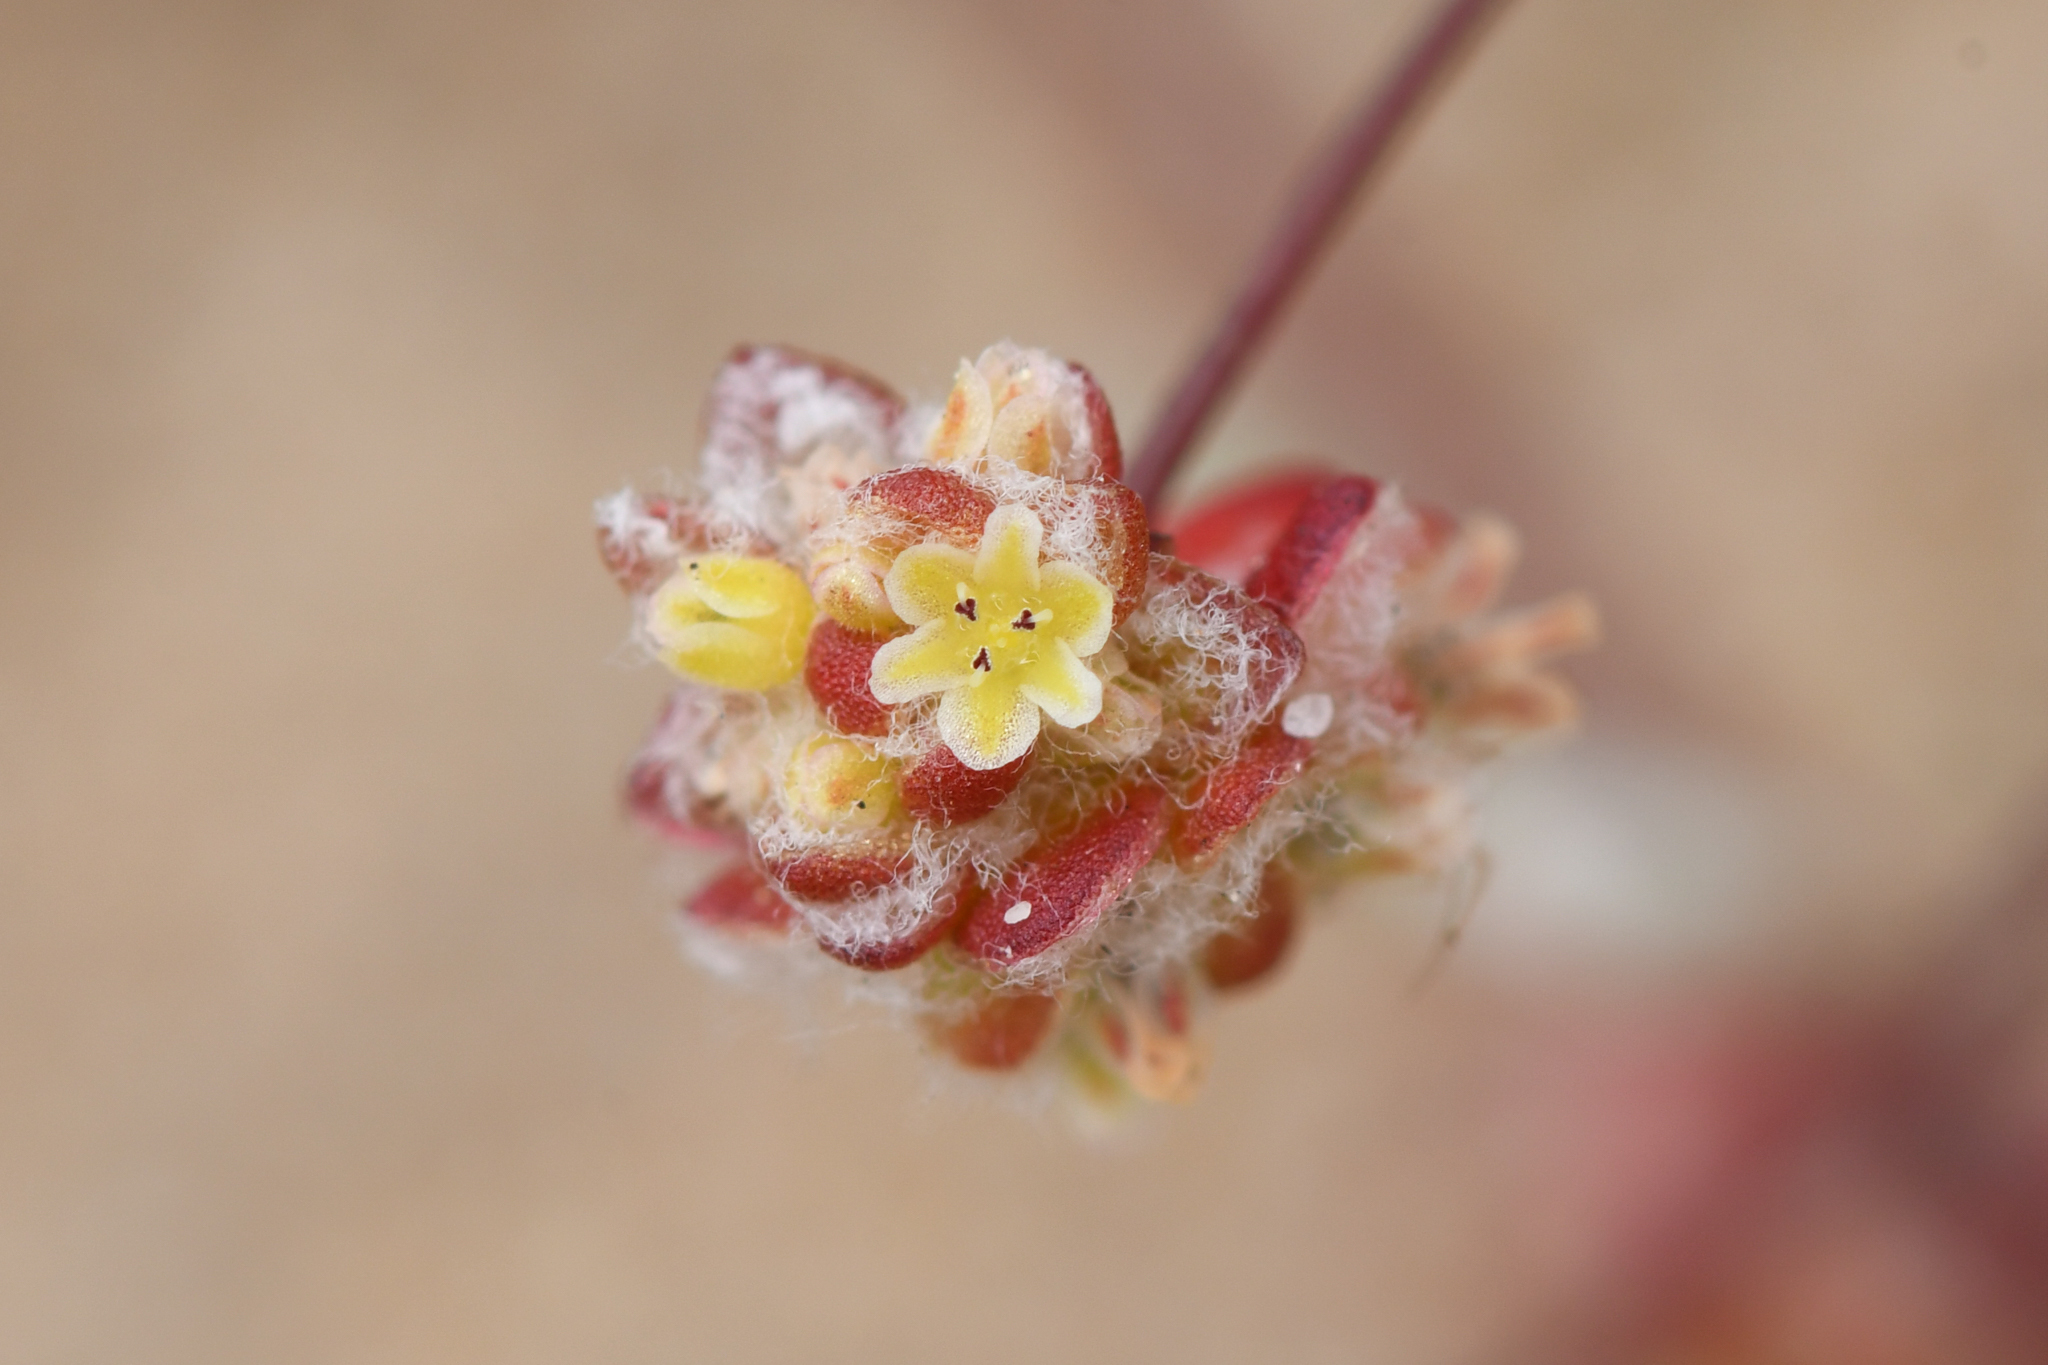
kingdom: Plantae
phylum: Tracheophyta
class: Magnoliopsida
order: Caryophyllales
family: Polygonaceae
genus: Nemacaulis
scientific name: Nemacaulis denudata
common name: Woolly-heads
